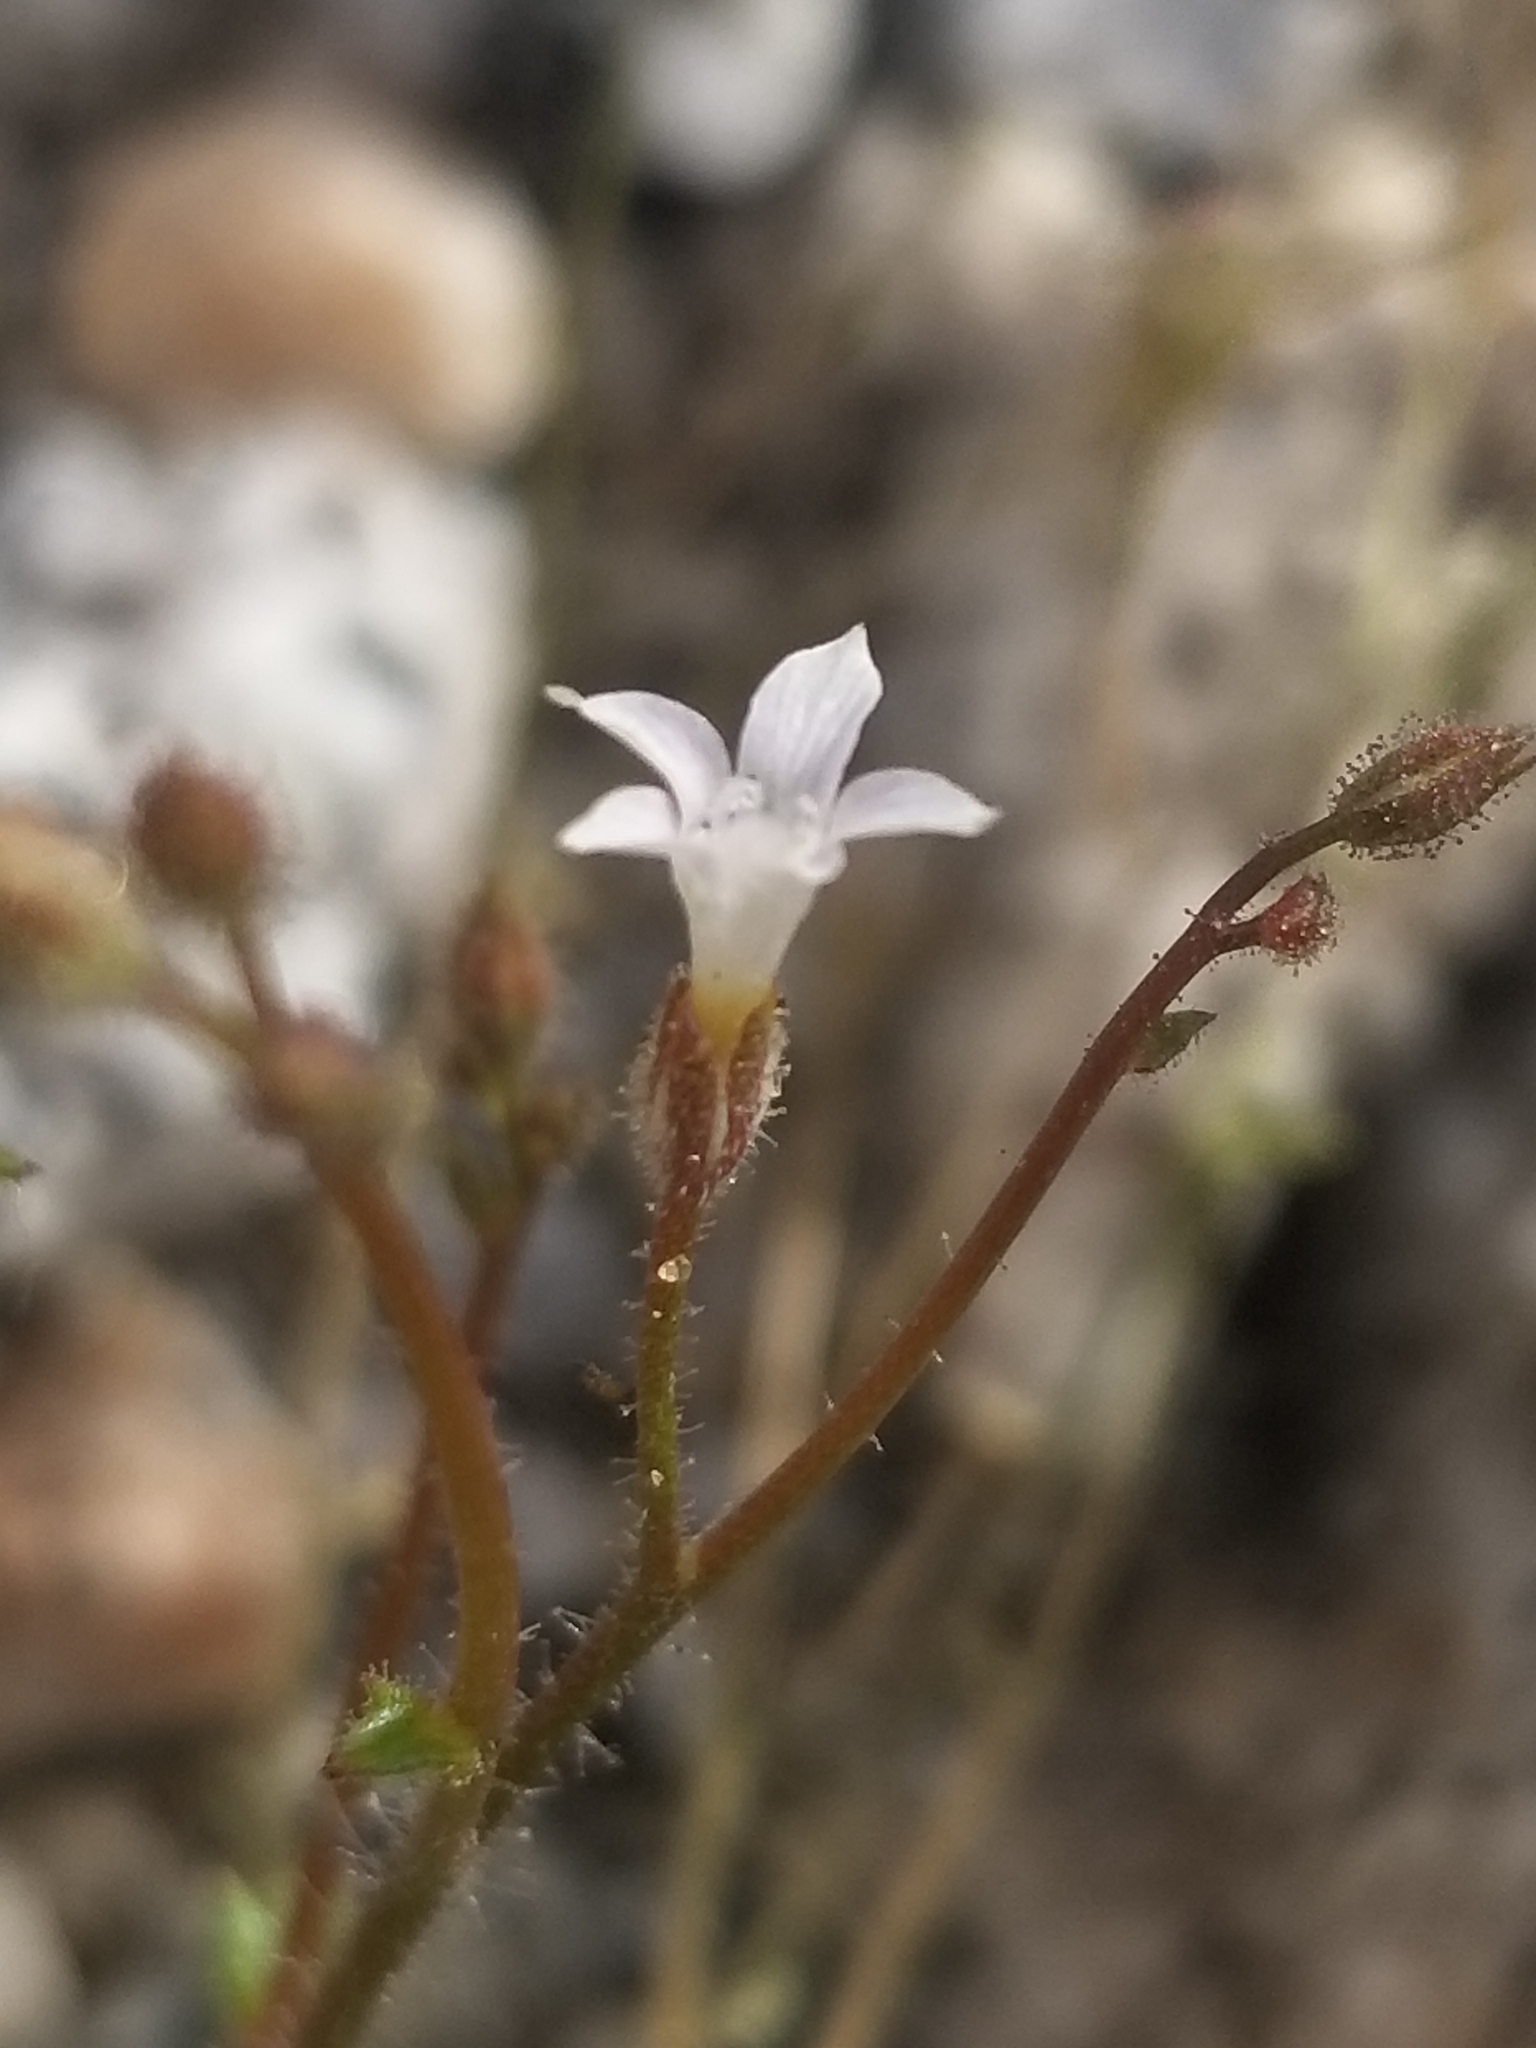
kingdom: Plantae
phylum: Tracheophyta
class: Magnoliopsida
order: Ericales
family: Polemoniaceae
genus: Gilia
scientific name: Gilia stellata
